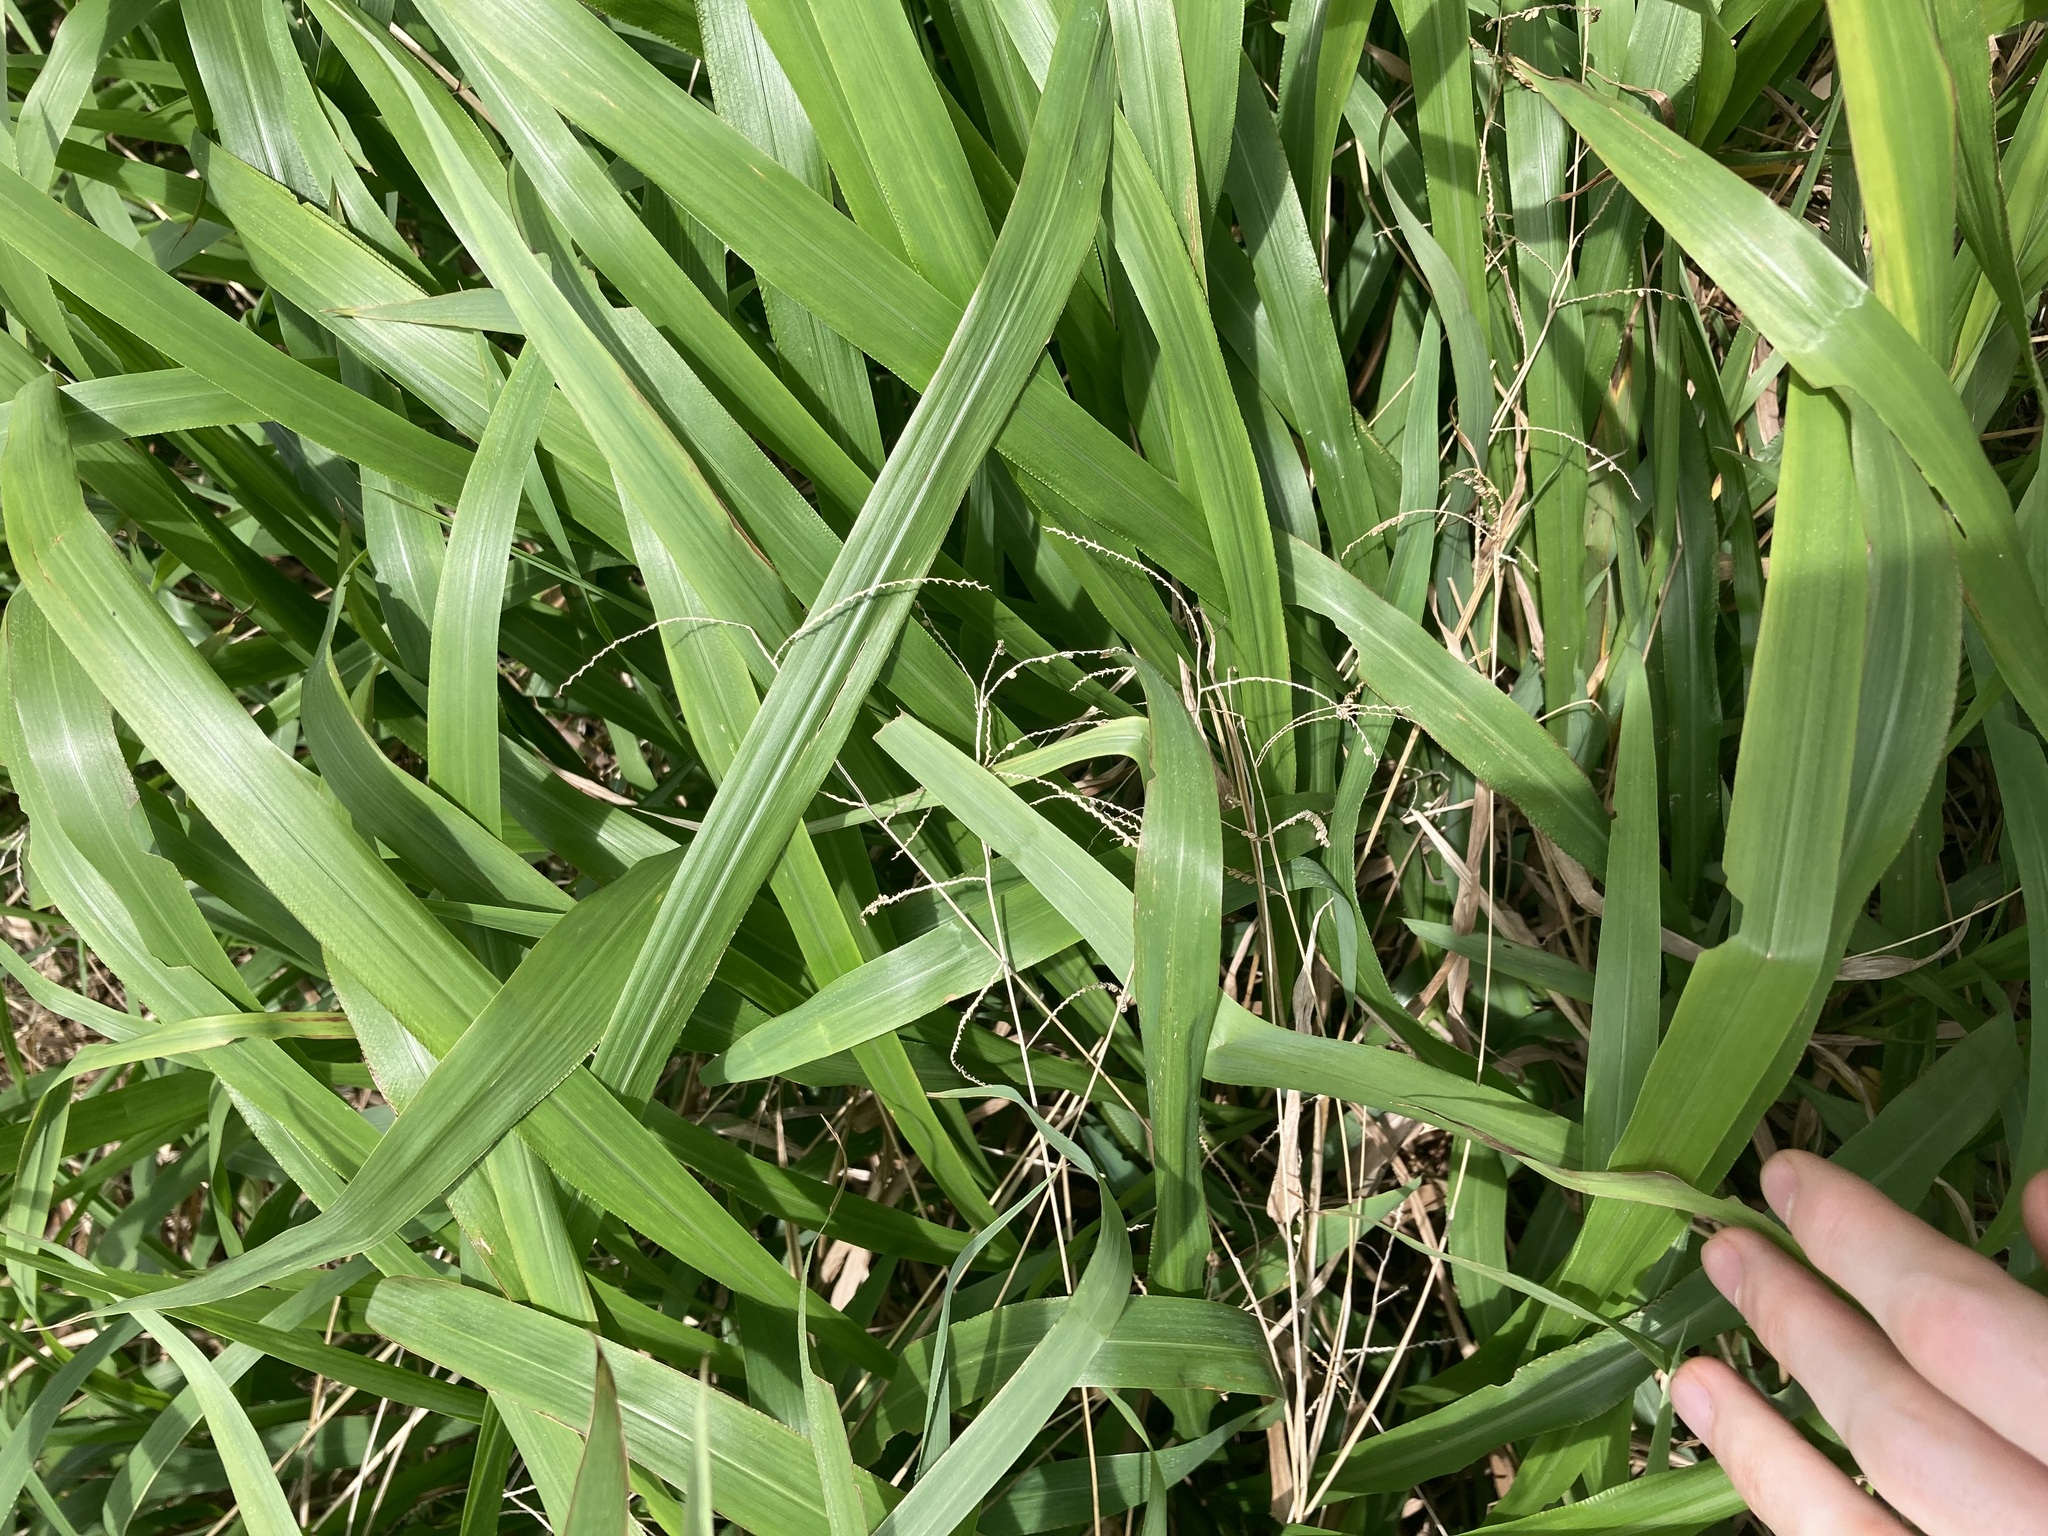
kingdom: Plantae
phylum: Tracheophyta
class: Liliopsida
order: Poales
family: Poaceae
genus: Paspalum
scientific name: Paspalum mandiocanum
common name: Paspalum
